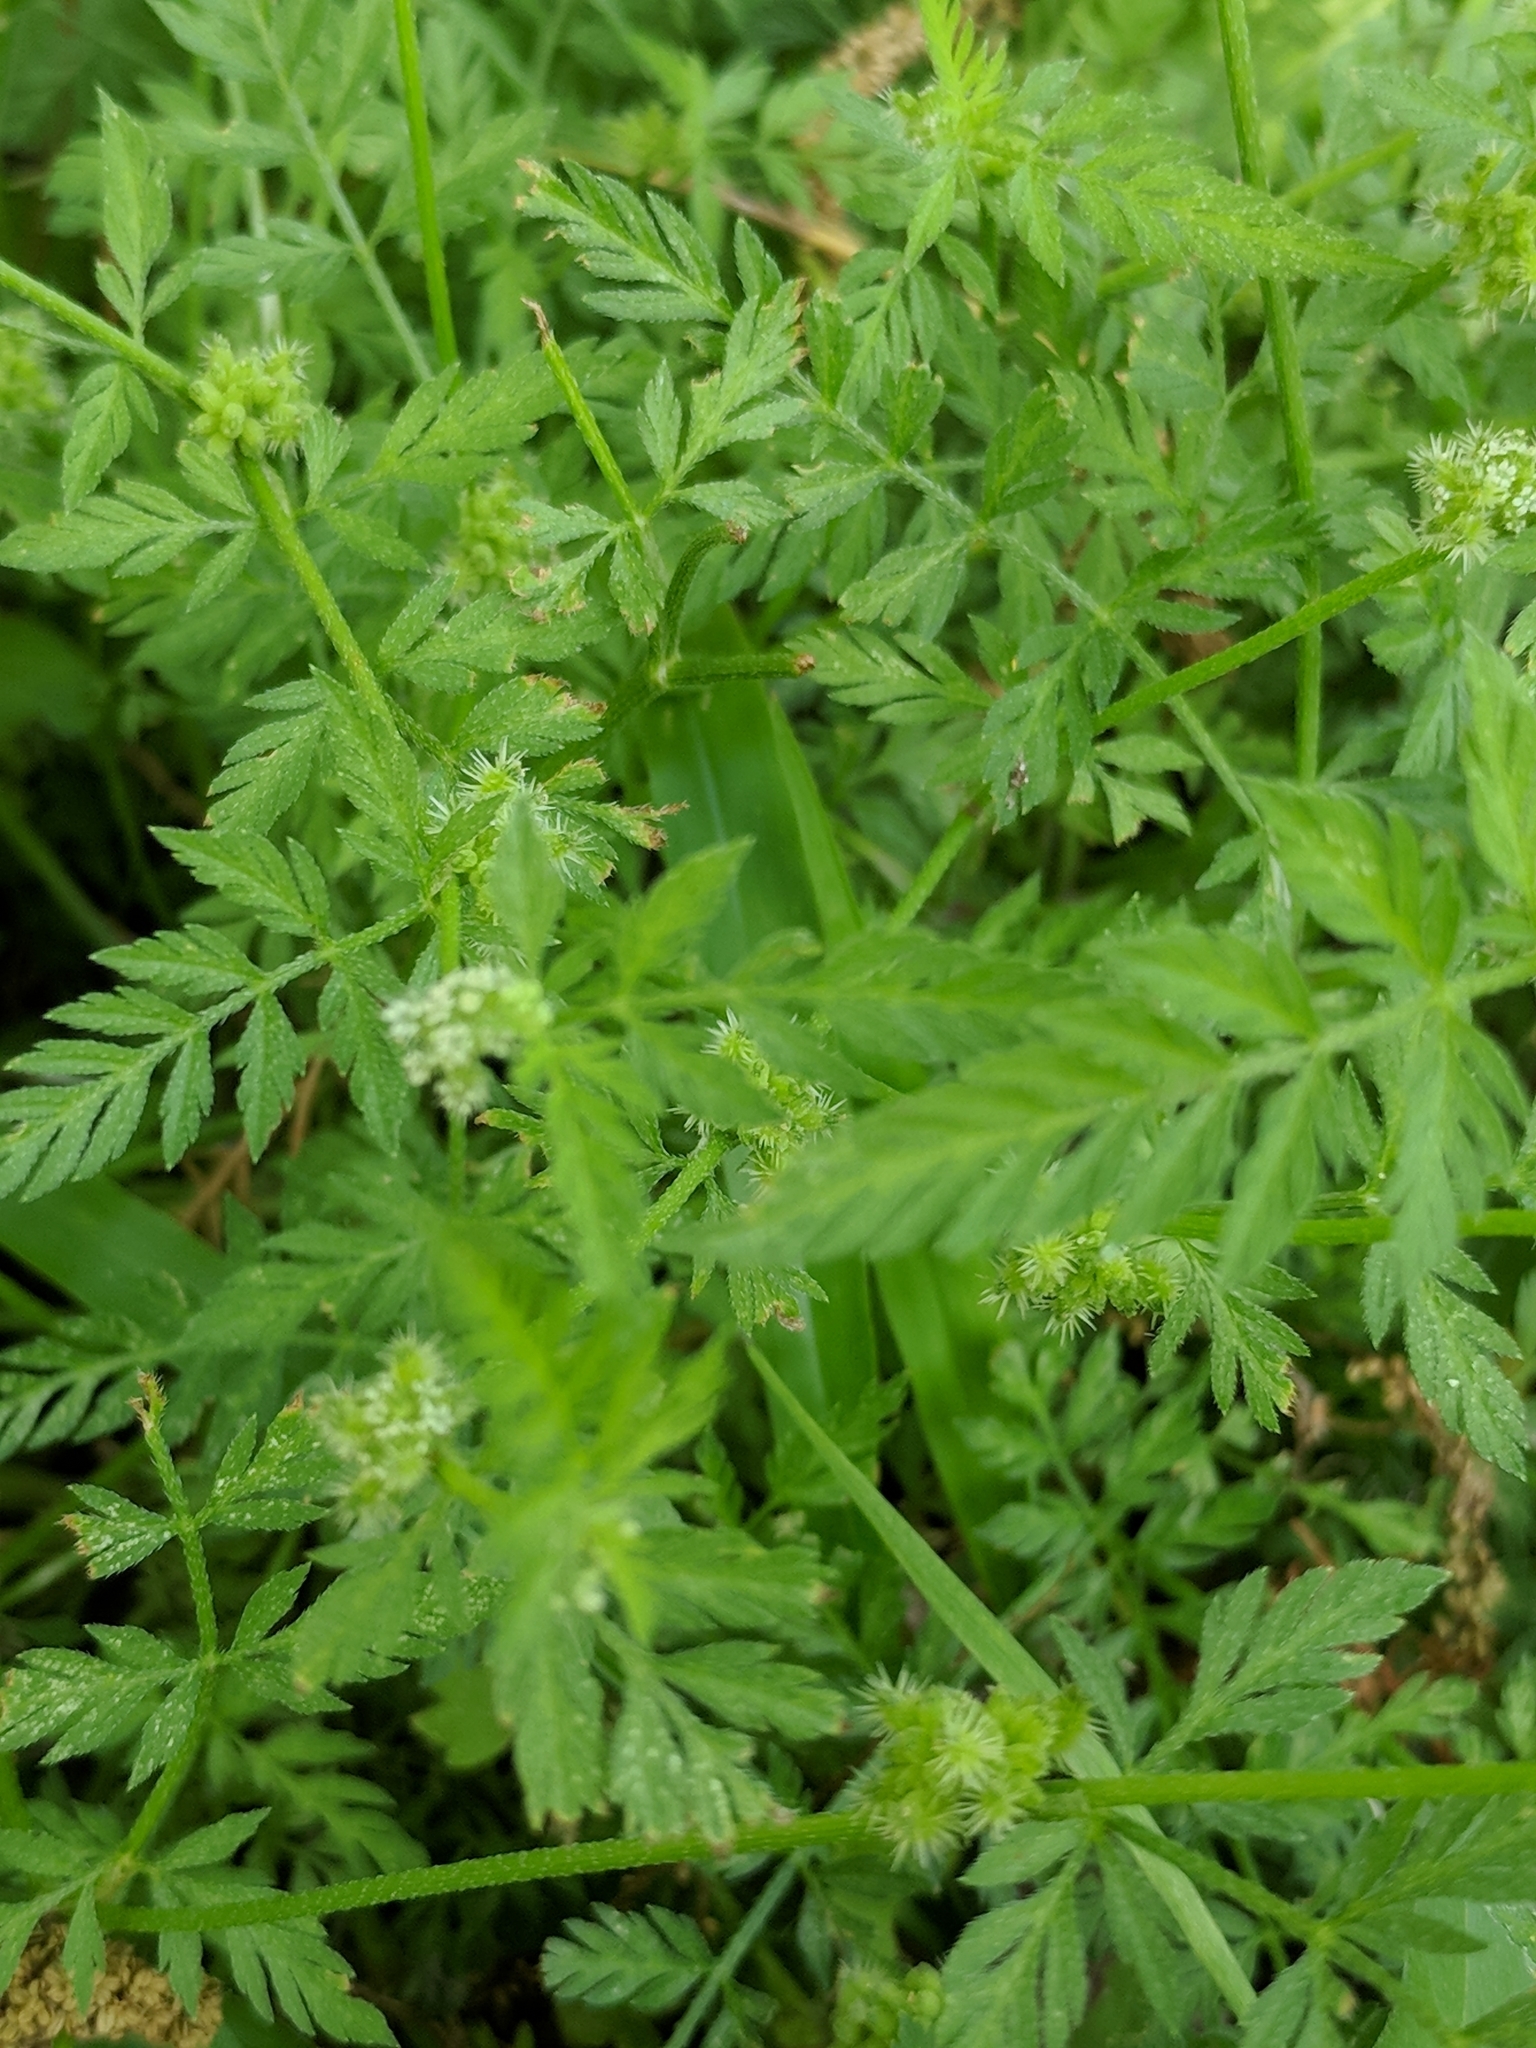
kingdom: Plantae
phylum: Tracheophyta
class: Magnoliopsida
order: Apiales
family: Apiaceae
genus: Torilis
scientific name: Torilis nodosa
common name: Knotted hedge-parsley
